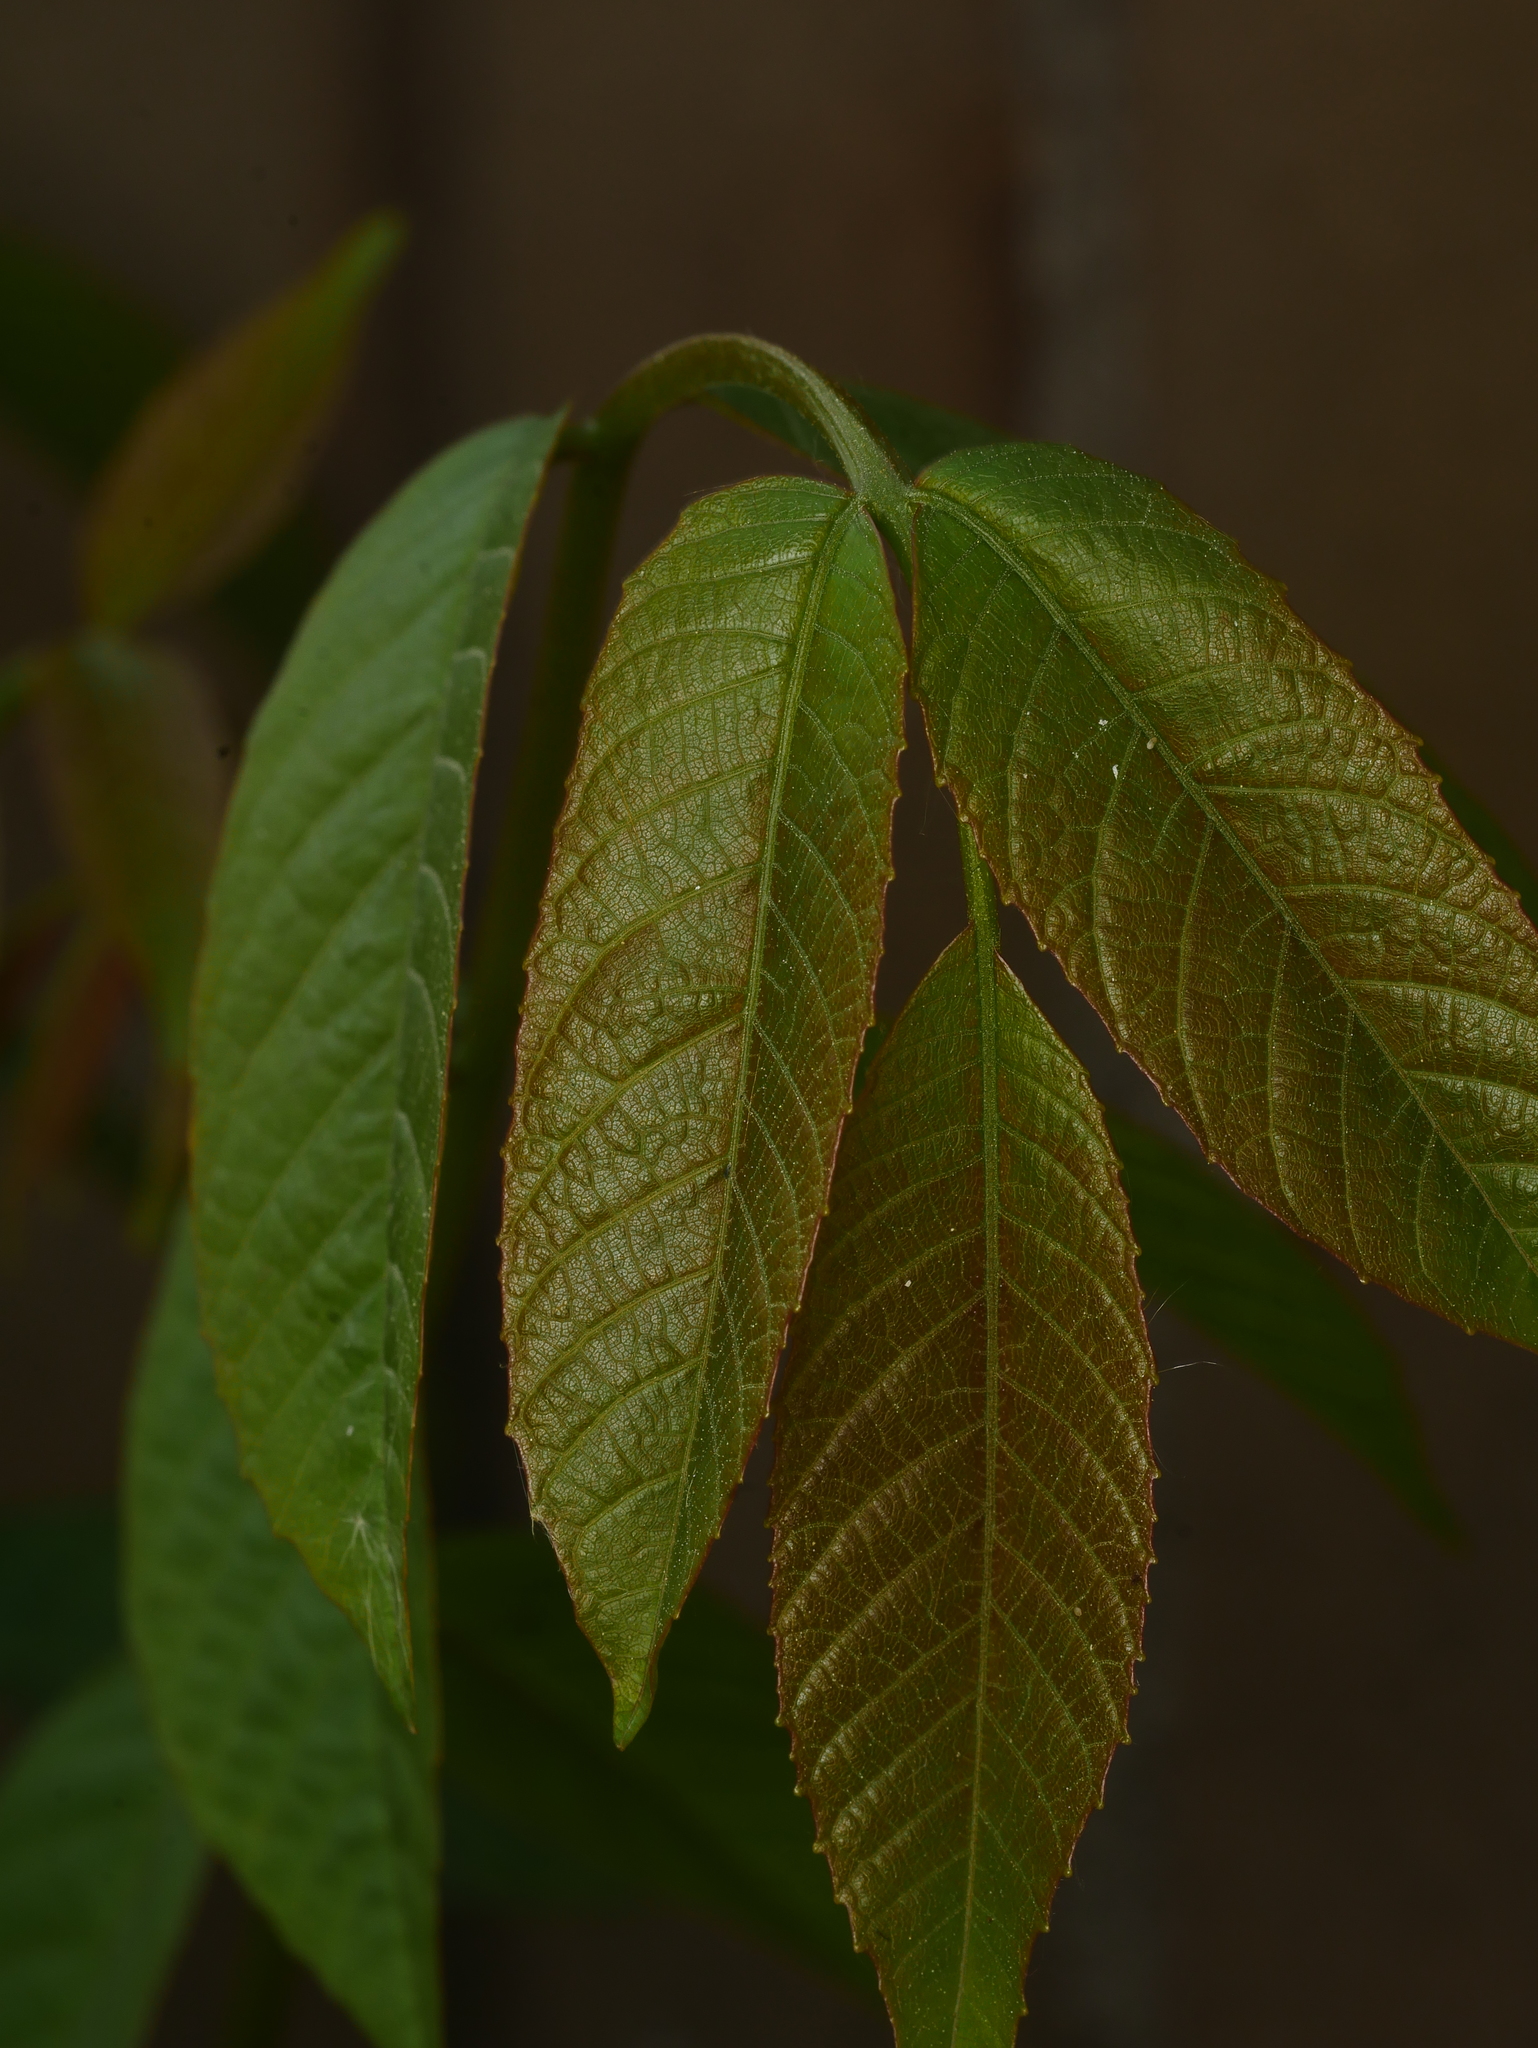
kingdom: Plantae
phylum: Tracheophyta
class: Magnoliopsida
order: Fagales
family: Juglandaceae
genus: Juglans
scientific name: Juglans regia
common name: Walnut
